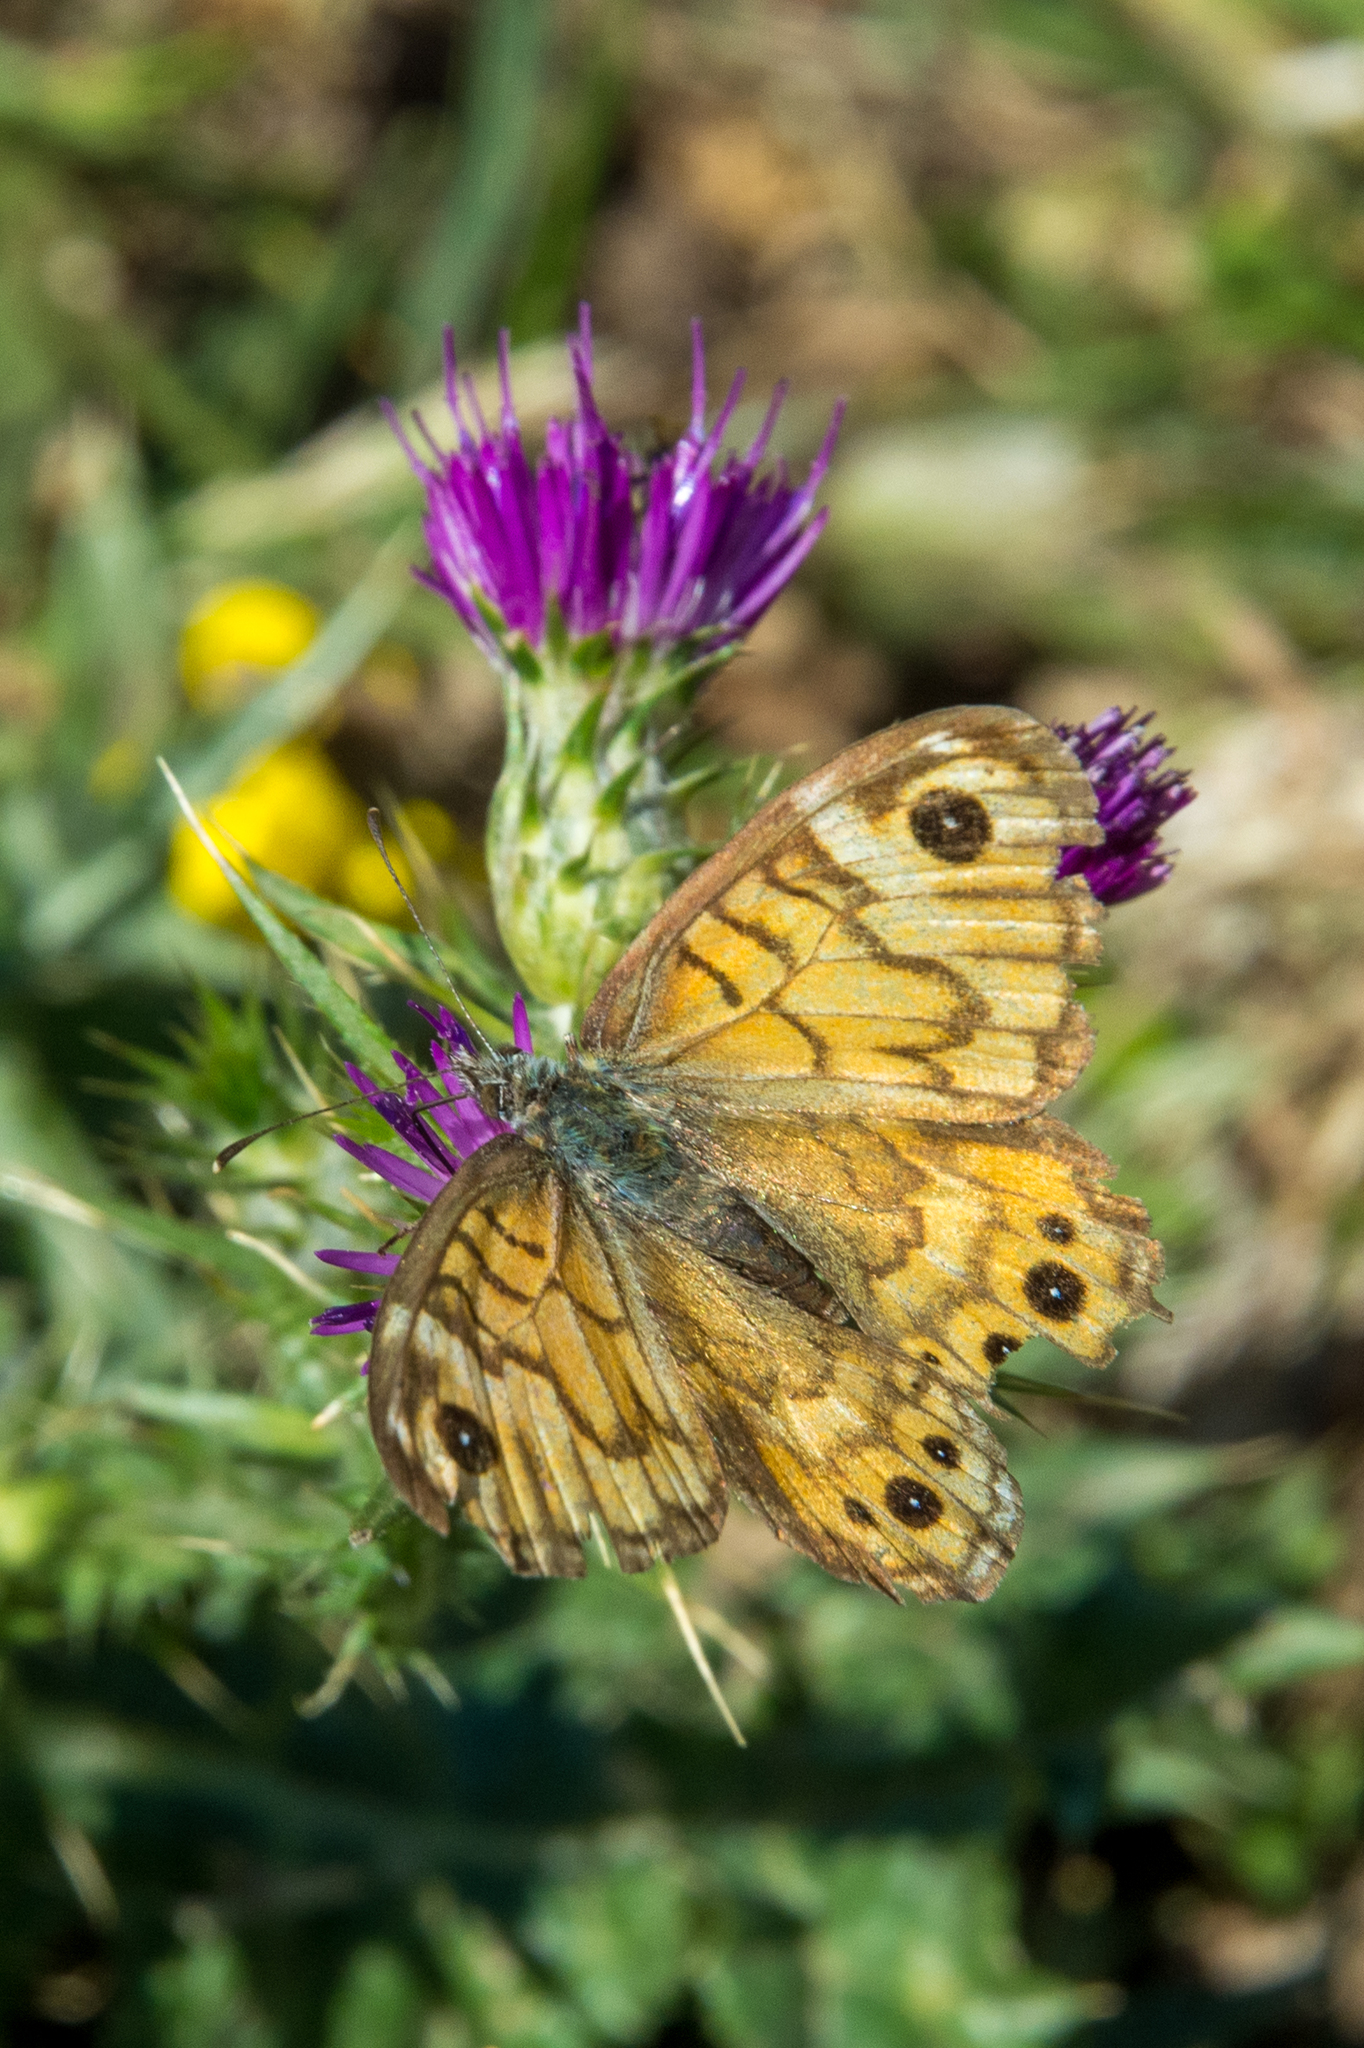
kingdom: Animalia
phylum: Arthropoda
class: Insecta
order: Lepidoptera
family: Nymphalidae
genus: Pararge
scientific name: Pararge Lasiommata megera
